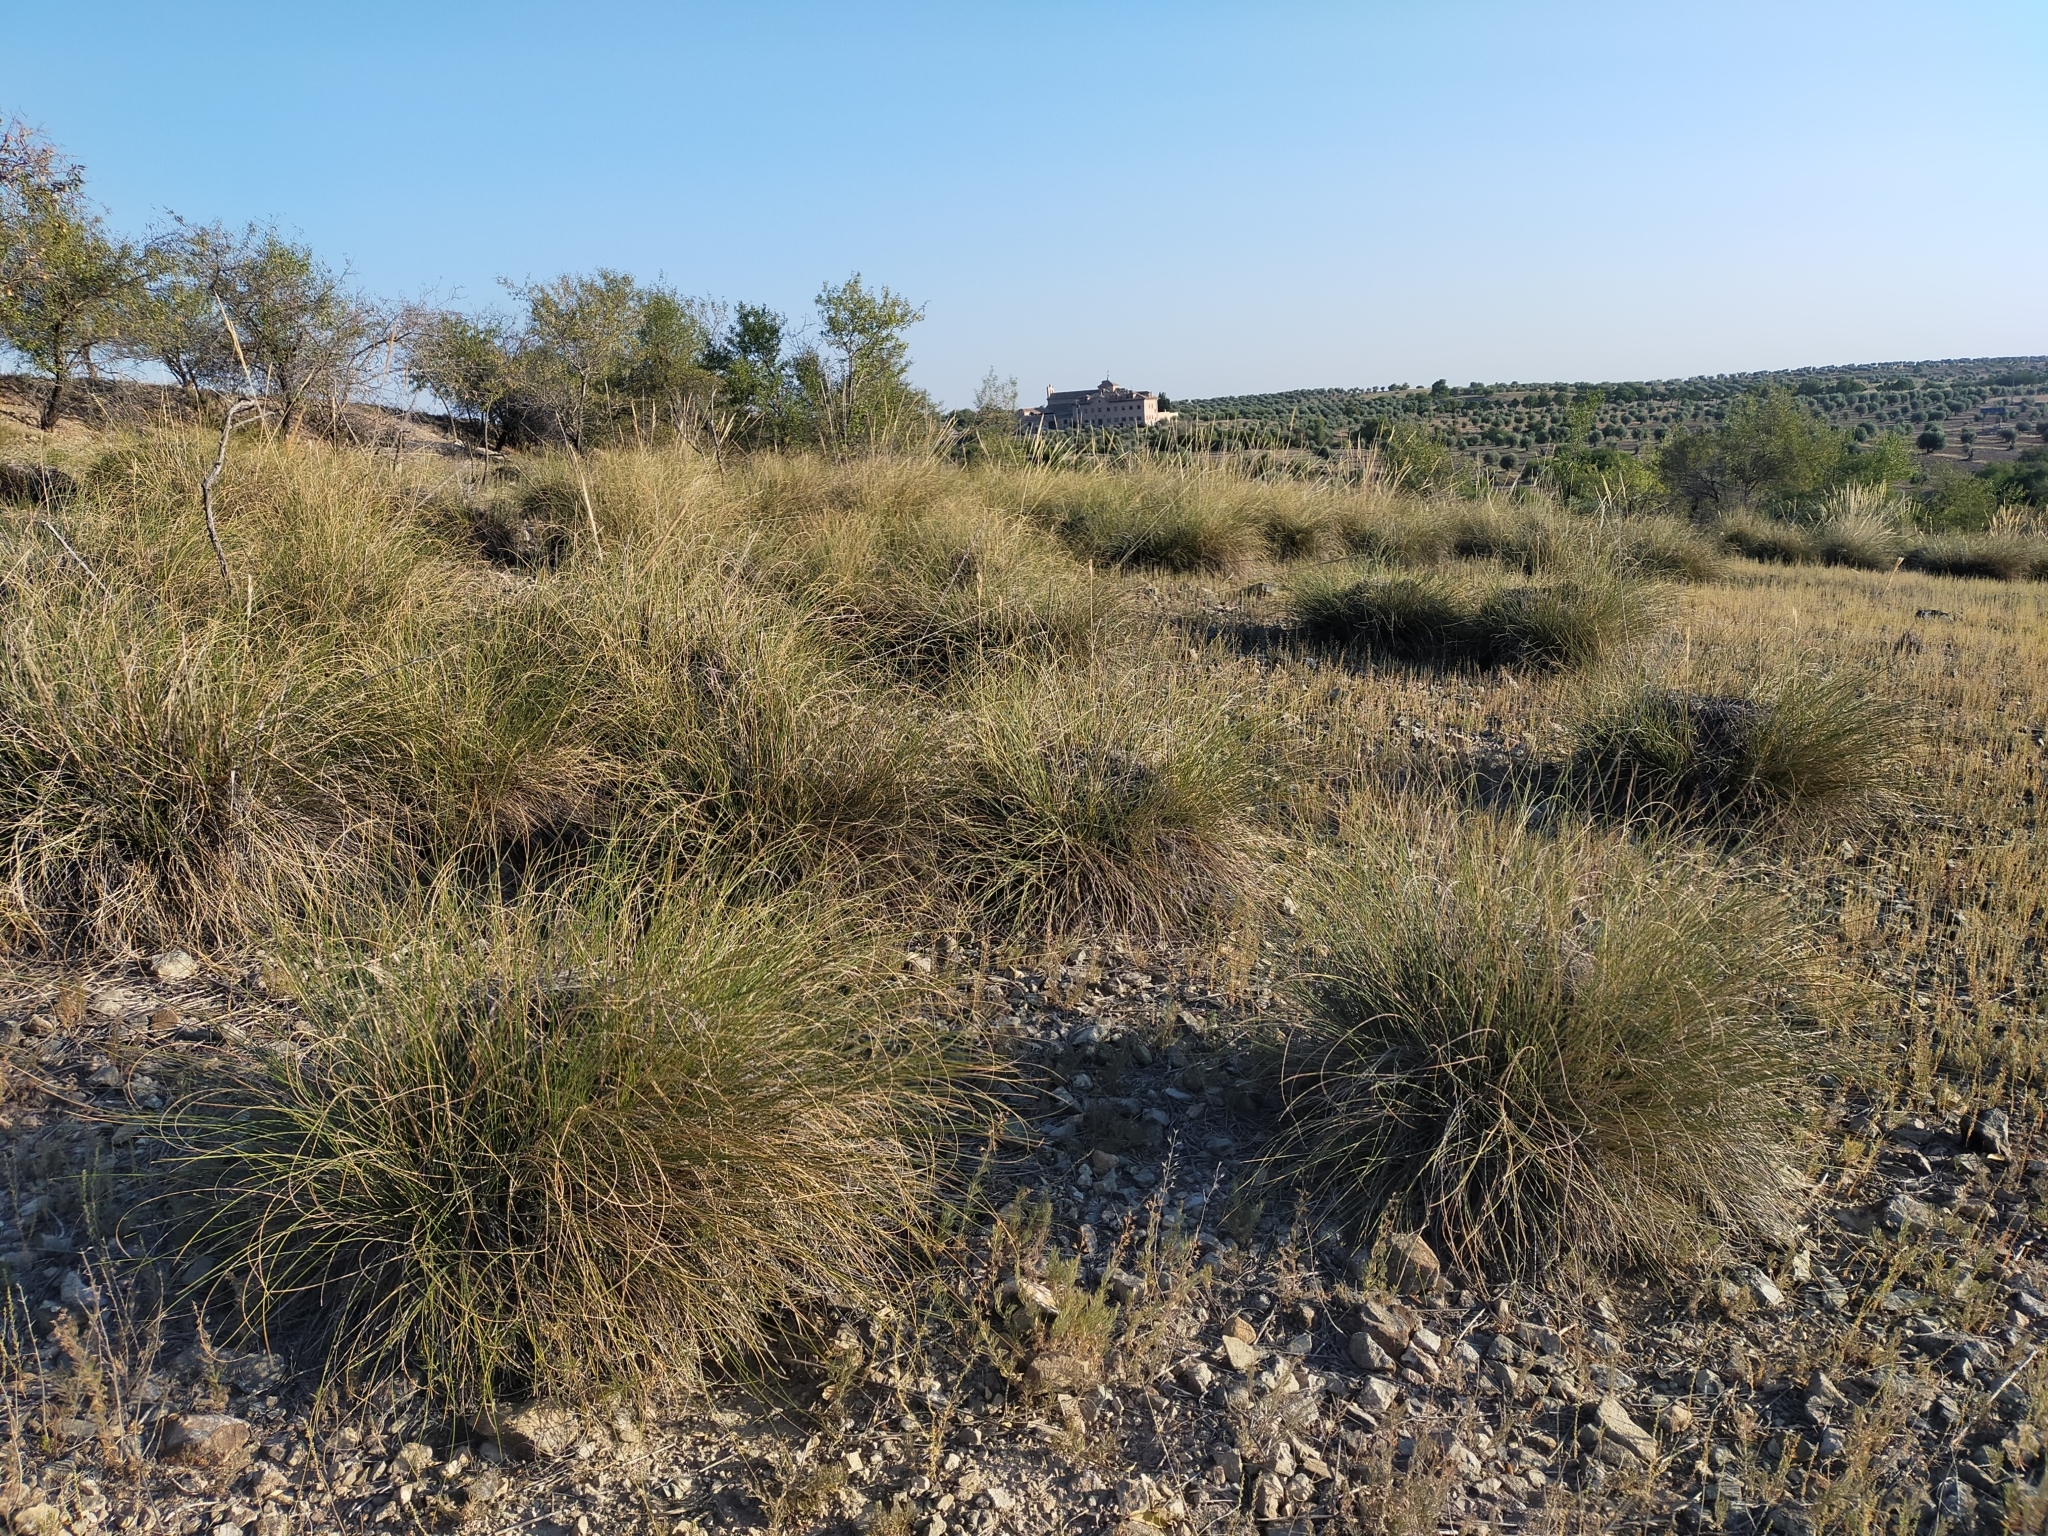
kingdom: Plantae
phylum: Tracheophyta
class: Liliopsida
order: Poales
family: Poaceae
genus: Macrochloa
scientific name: Macrochloa tenacissima
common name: Alfa grass
